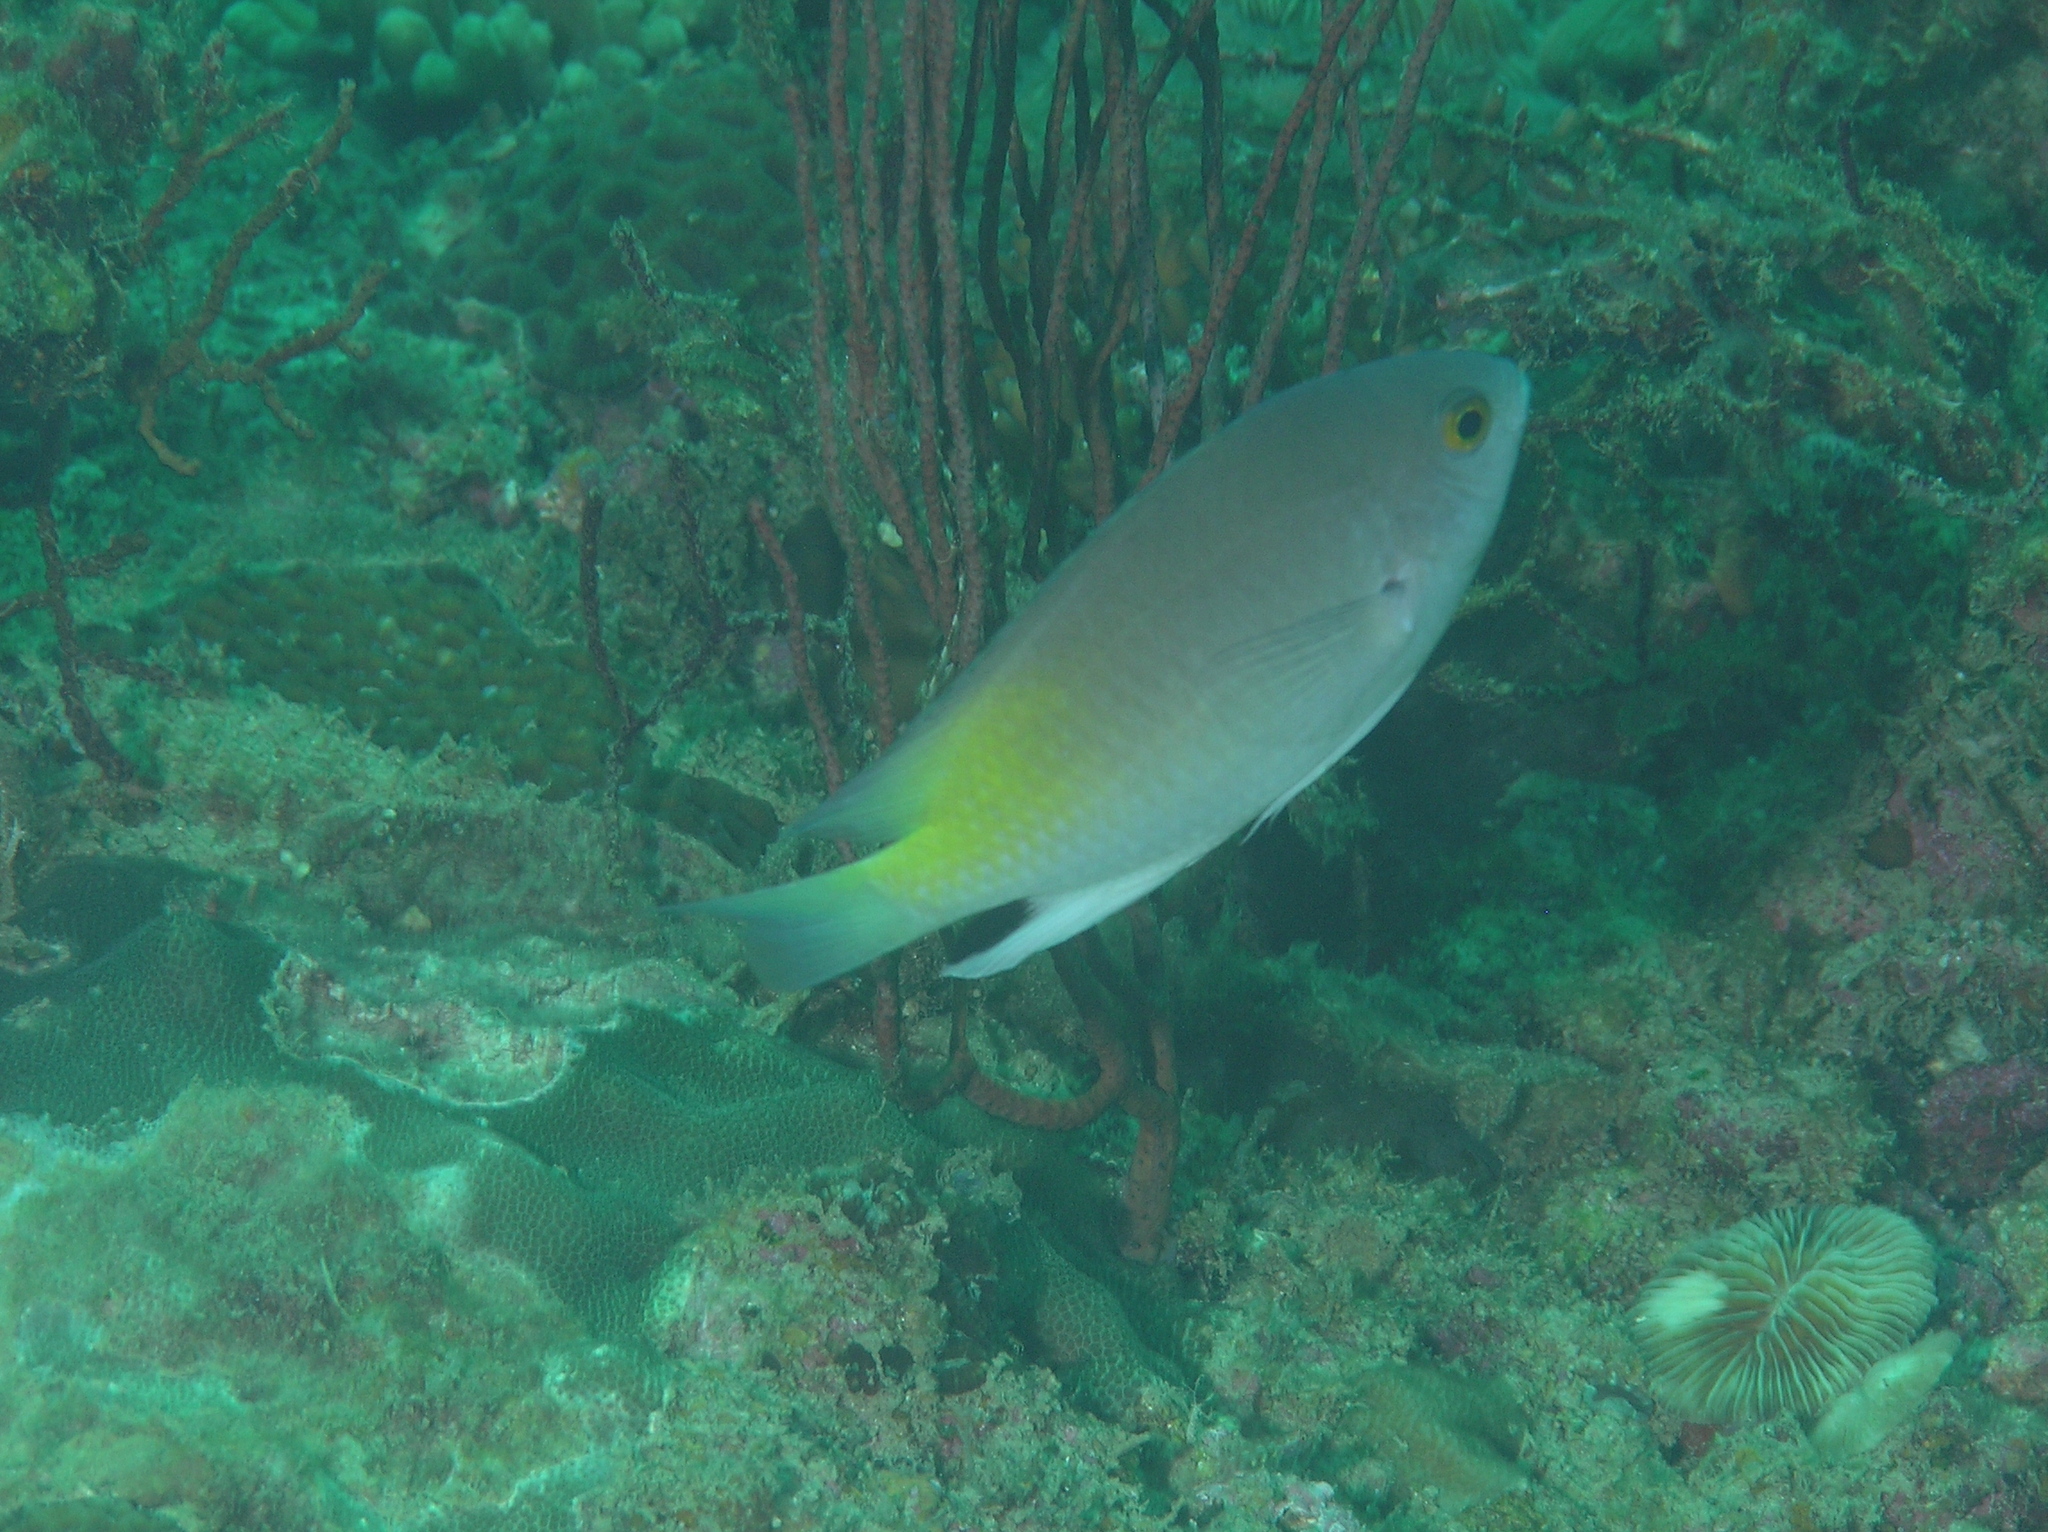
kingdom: Animalia
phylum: Chordata
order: Perciformes
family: Pomacentridae
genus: Pomacentrus
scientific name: Pomacentrus stigma
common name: Blackspot damsel
